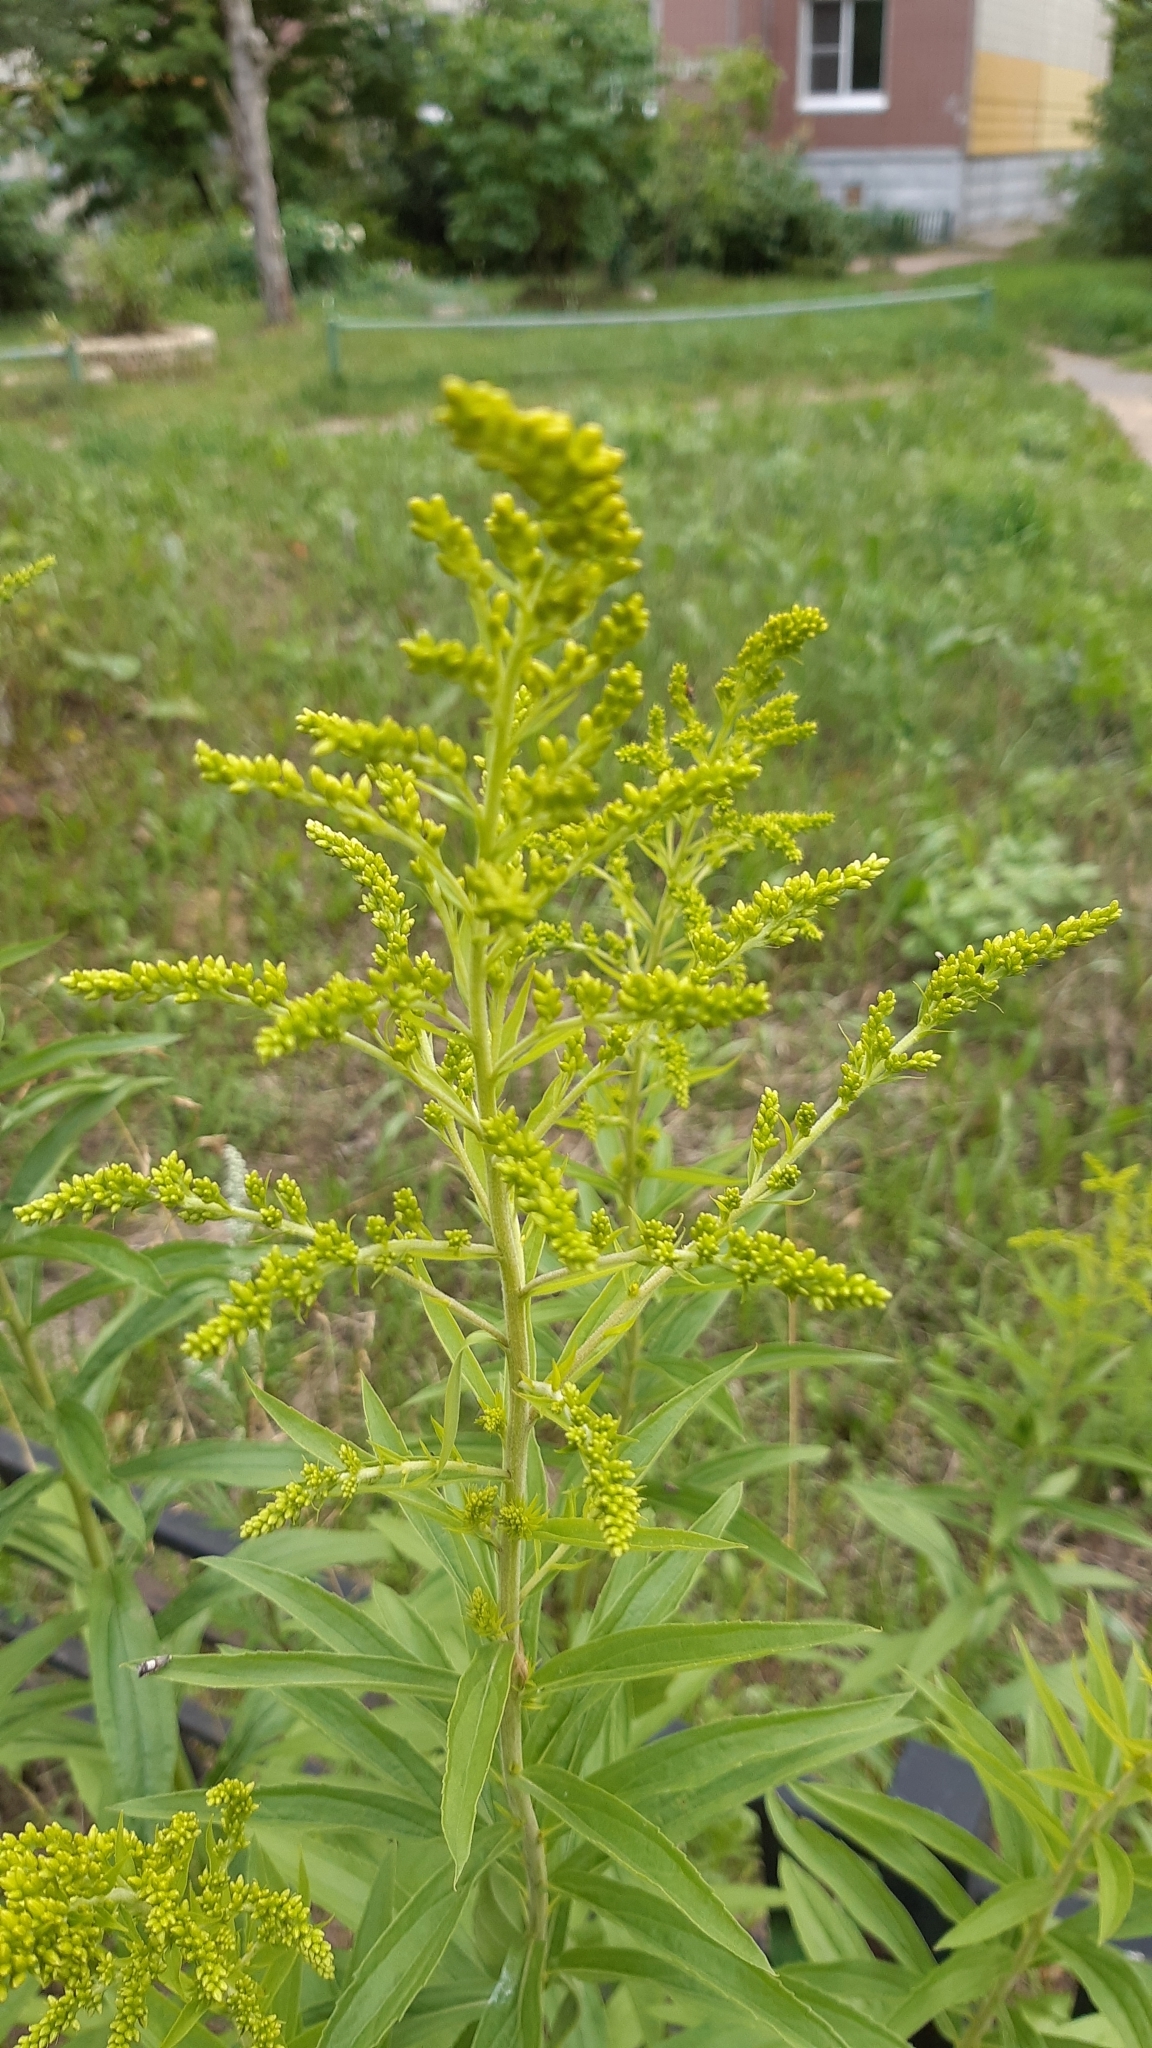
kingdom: Plantae
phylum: Tracheophyta
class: Magnoliopsida
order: Asterales
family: Asteraceae
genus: Solidago
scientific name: Solidago canadensis
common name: Canada goldenrod
